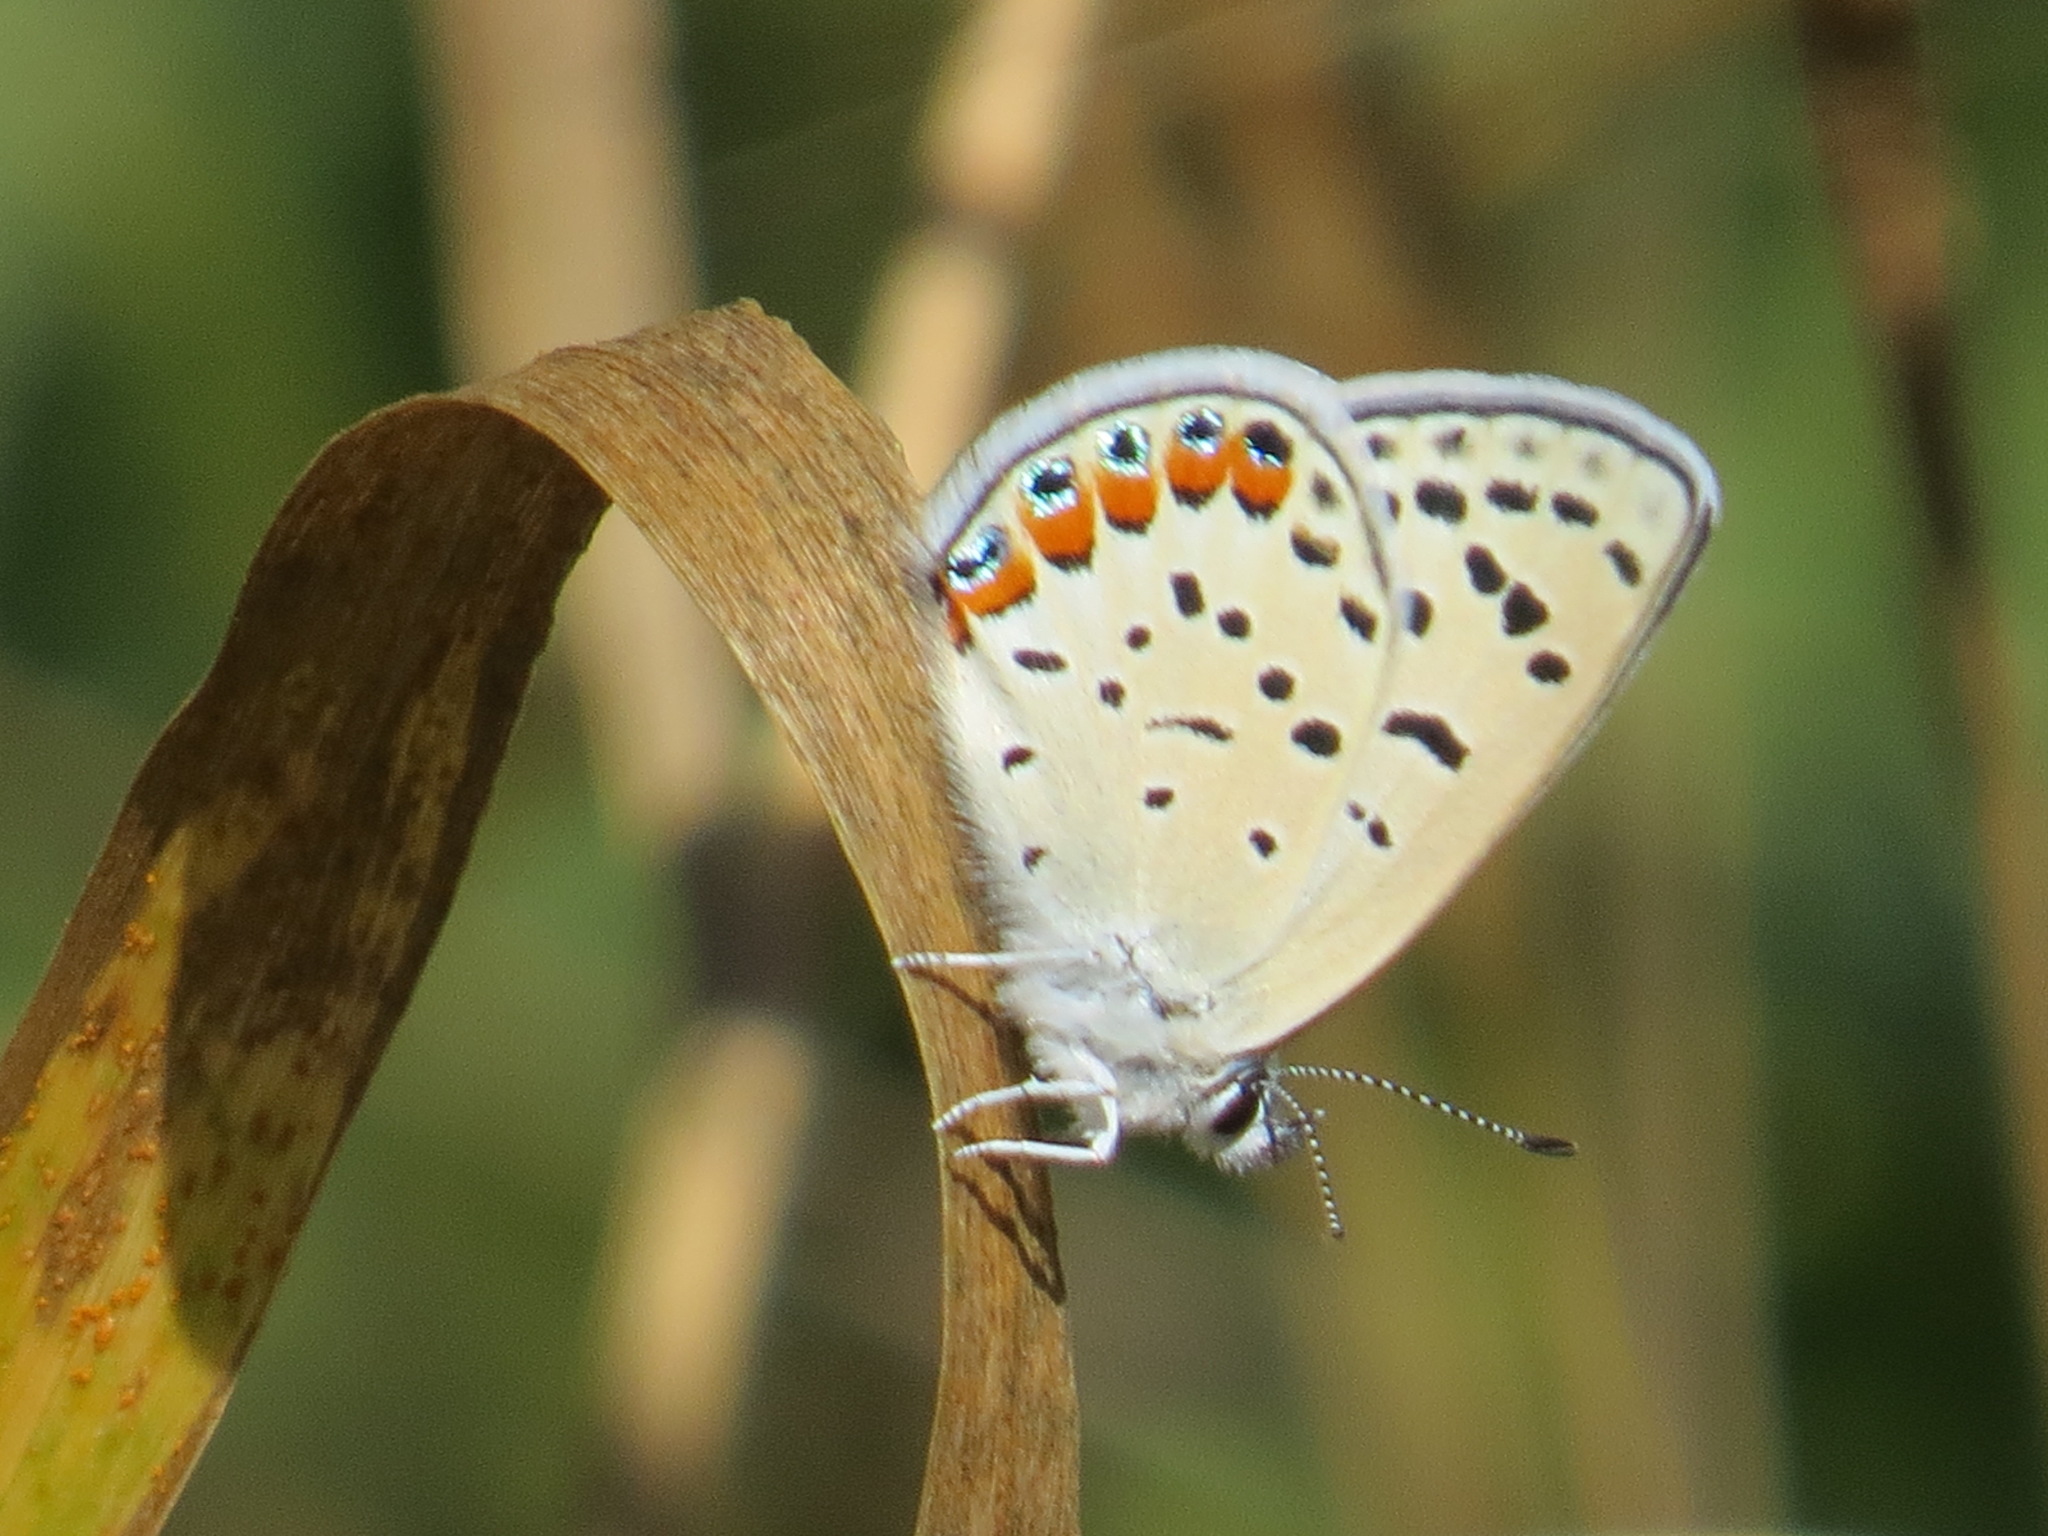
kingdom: Animalia
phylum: Arthropoda
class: Insecta
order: Lepidoptera
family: Lycaenidae
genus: Icaricia
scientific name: Icaricia acmon
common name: Acmon blue
